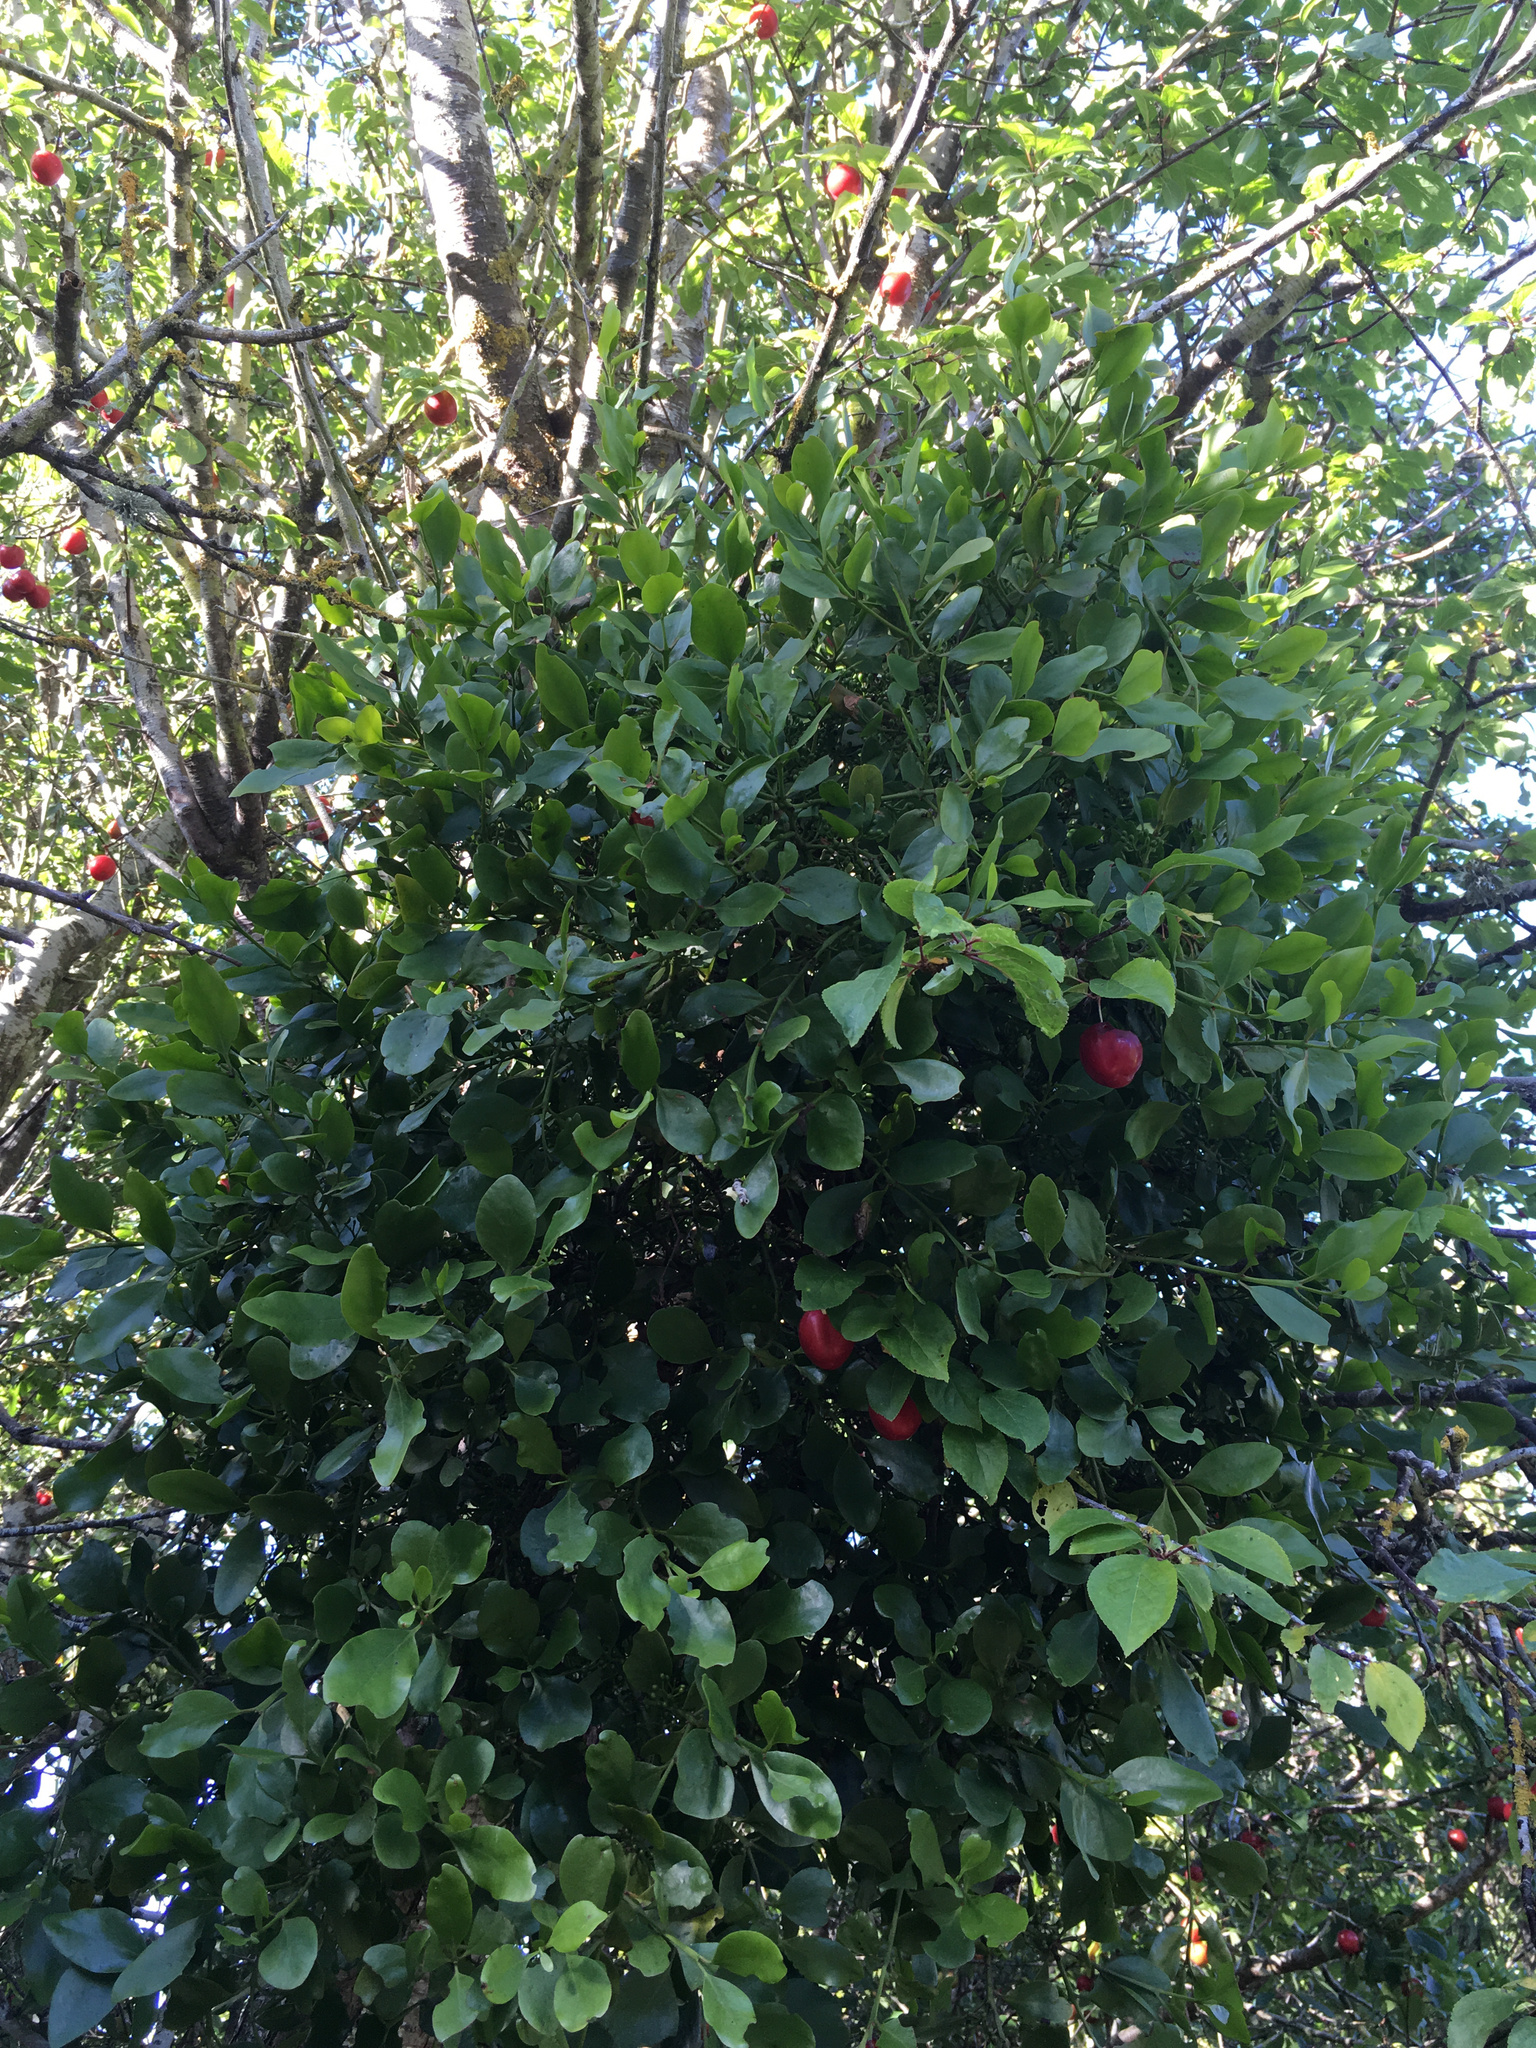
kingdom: Plantae
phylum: Tracheophyta
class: Magnoliopsida
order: Santalales
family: Loranthaceae
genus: Ileostylus
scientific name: Ileostylus micranthus
